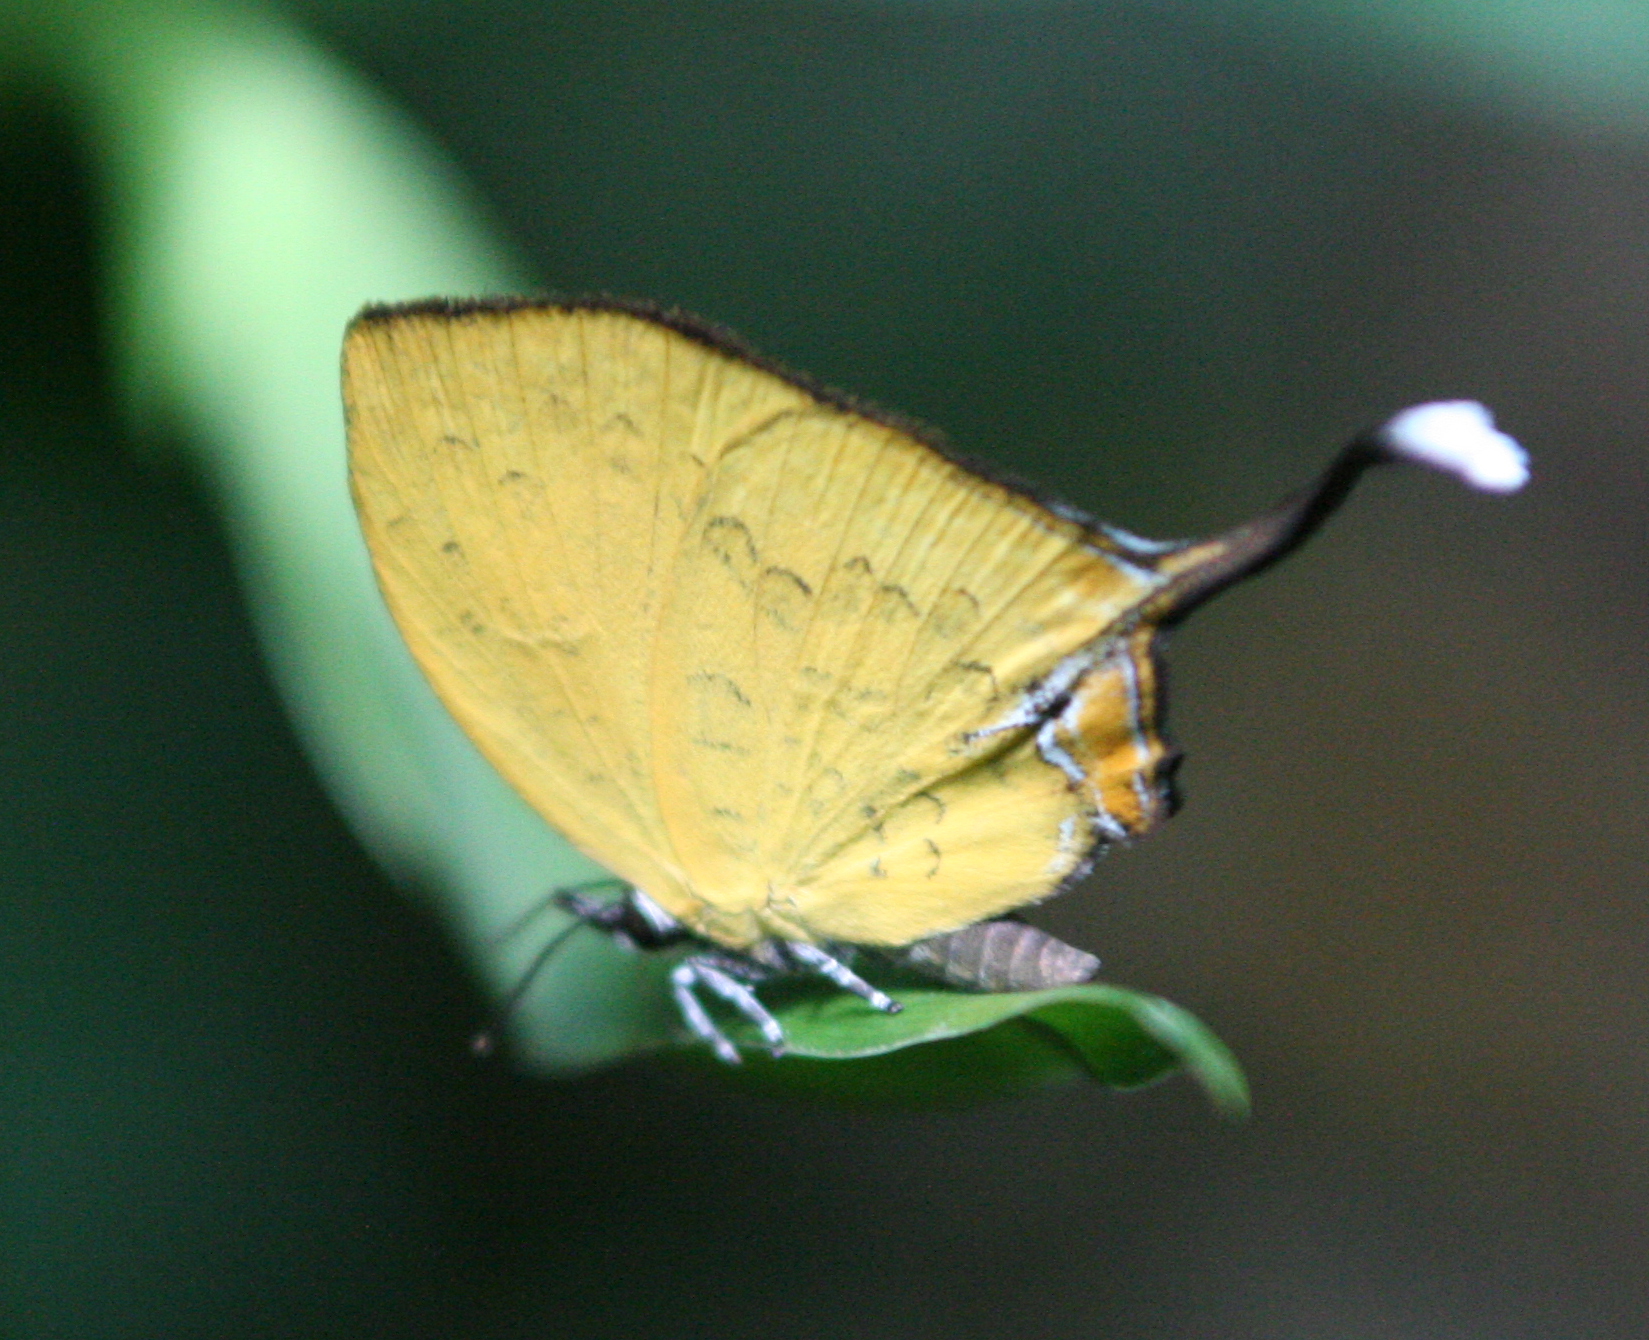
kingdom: Animalia
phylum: Arthropoda
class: Insecta
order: Lepidoptera
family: Lycaenidae
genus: Yasoda
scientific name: Yasoda tripunctata
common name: Branded yamfly
